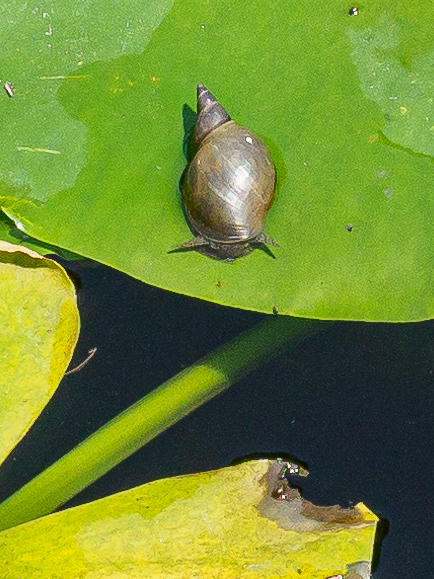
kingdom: Animalia
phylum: Mollusca
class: Gastropoda
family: Lymnaeidae
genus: Lymnaea
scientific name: Lymnaea stagnalis
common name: Great pond snail
